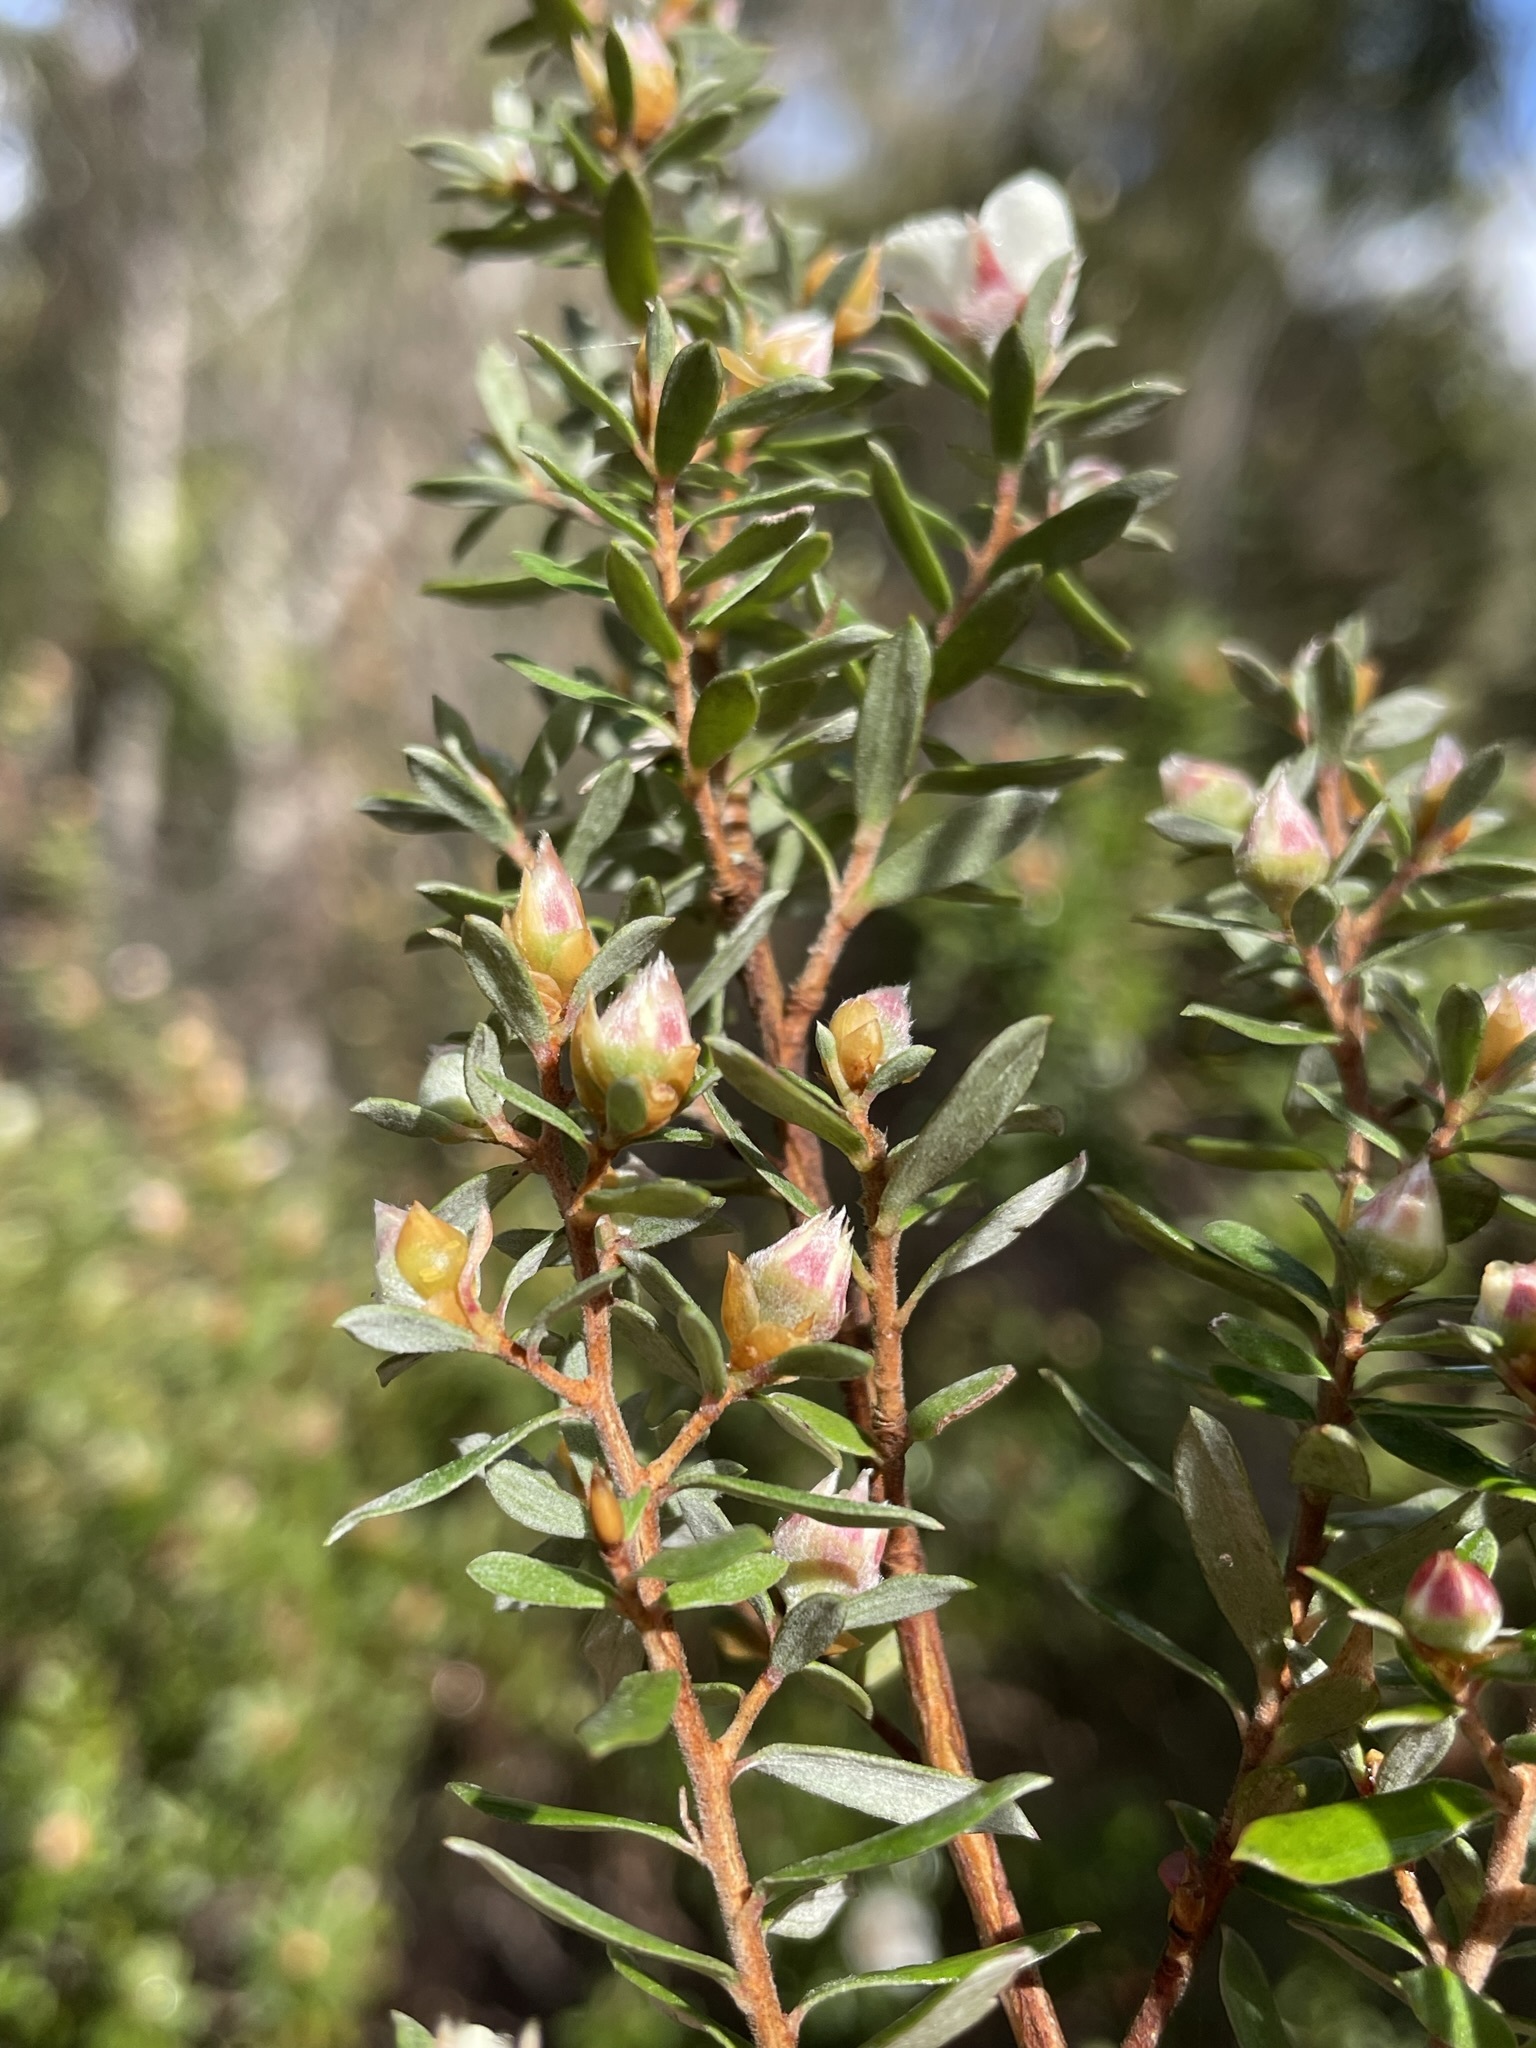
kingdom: Plantae
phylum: Tracheophyta
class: Magnoliopsida
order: Myrtales
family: Myrtaceae
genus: Leptospermum
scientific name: Leptospermum lanigerum
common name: Woolly tea-tree
